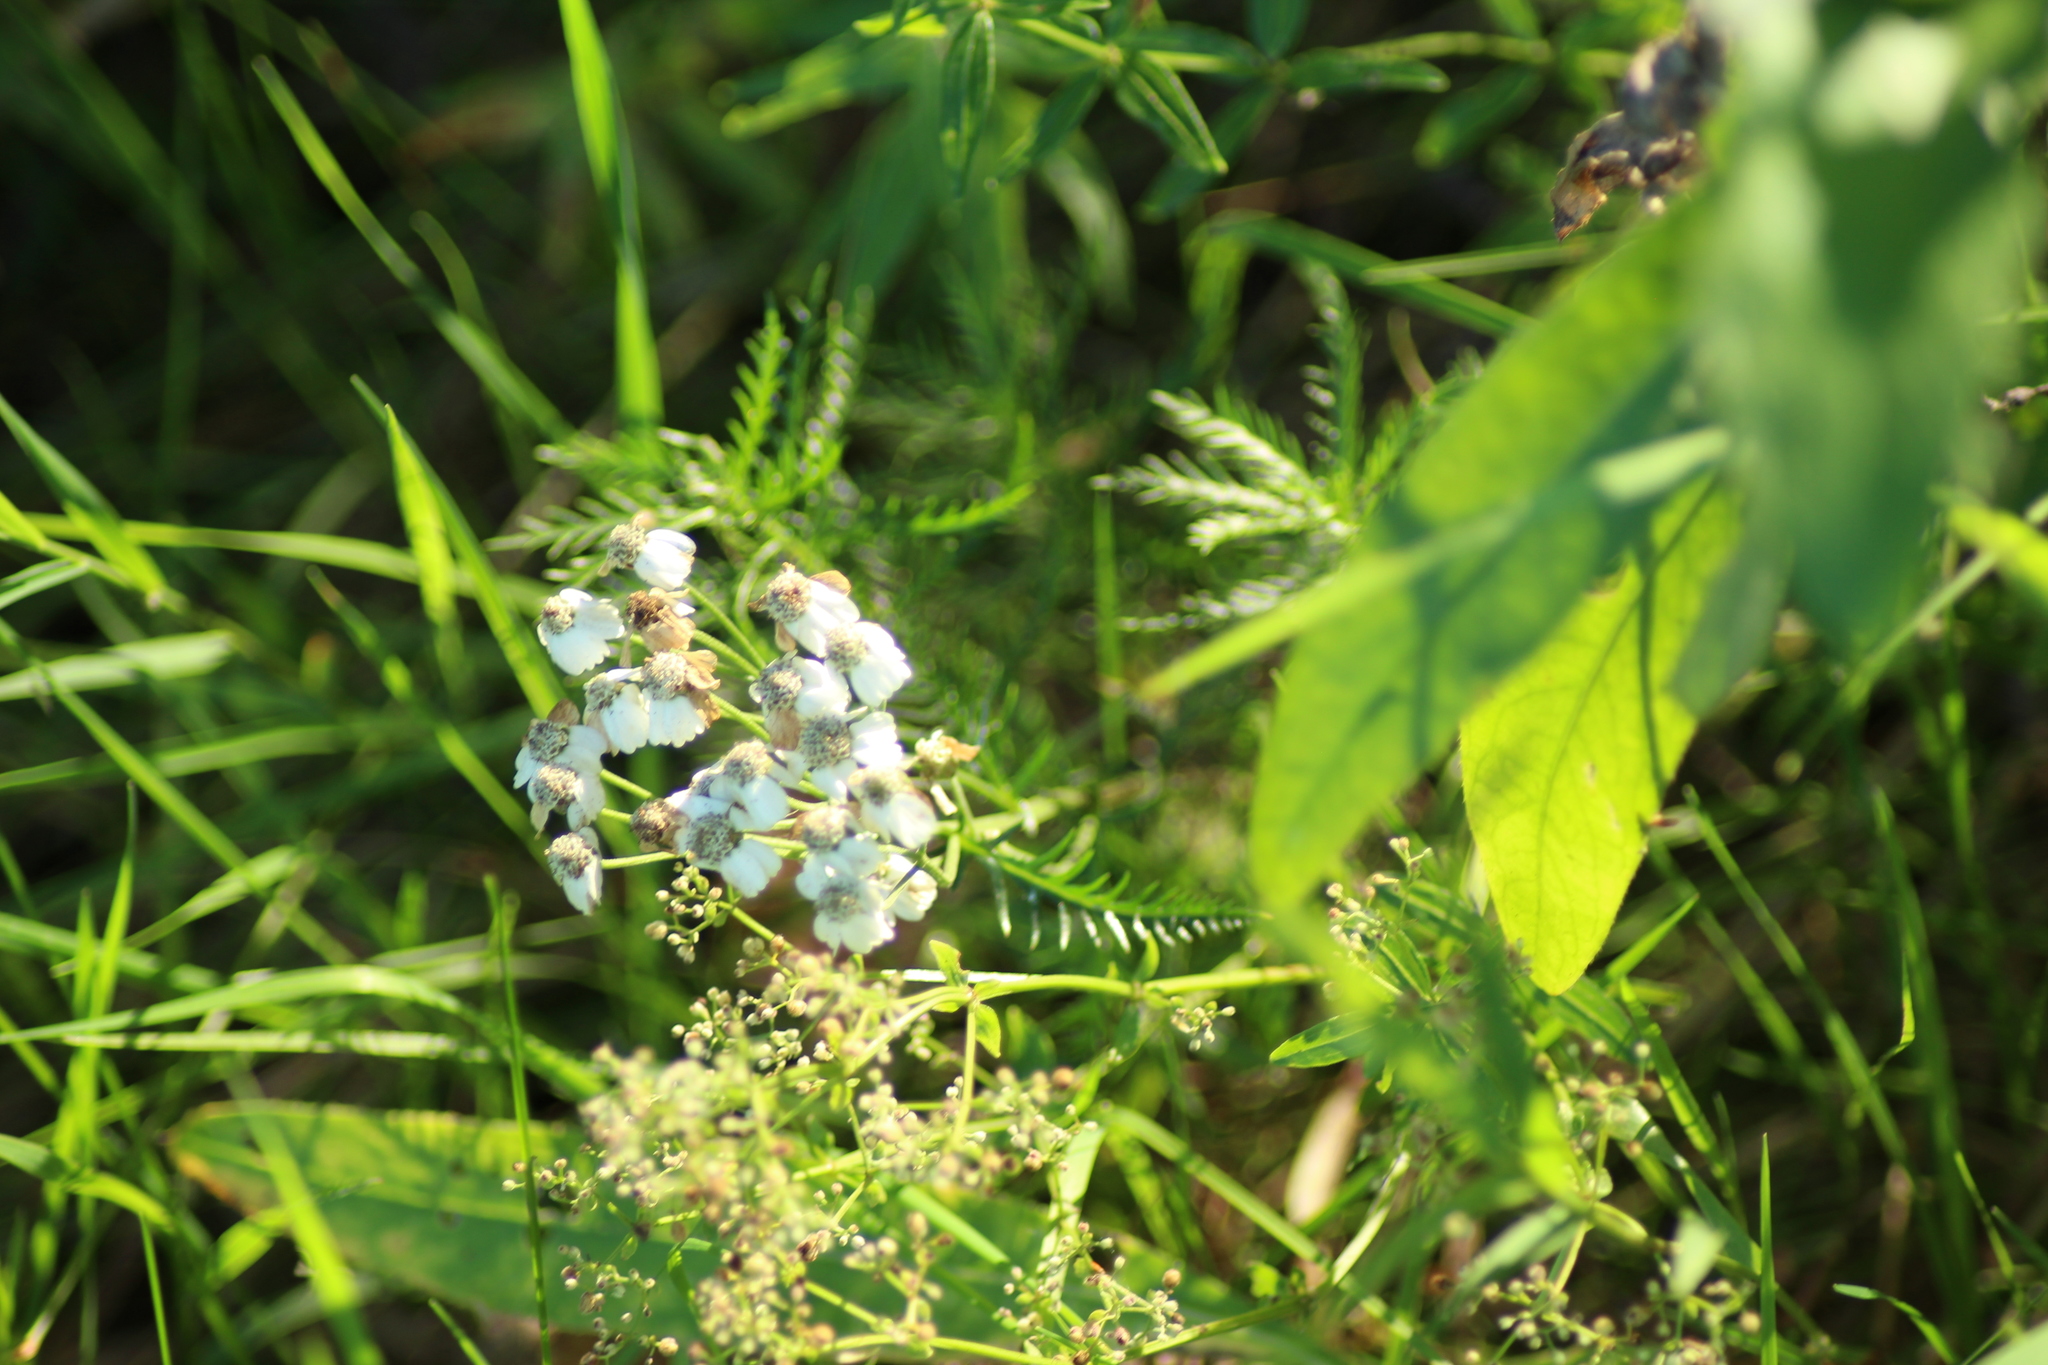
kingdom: Plantae
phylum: Tracheophyta
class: Magnoliopsida
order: Asterales
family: Asteraceae
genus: Achillea
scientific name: Achillea impatiens
